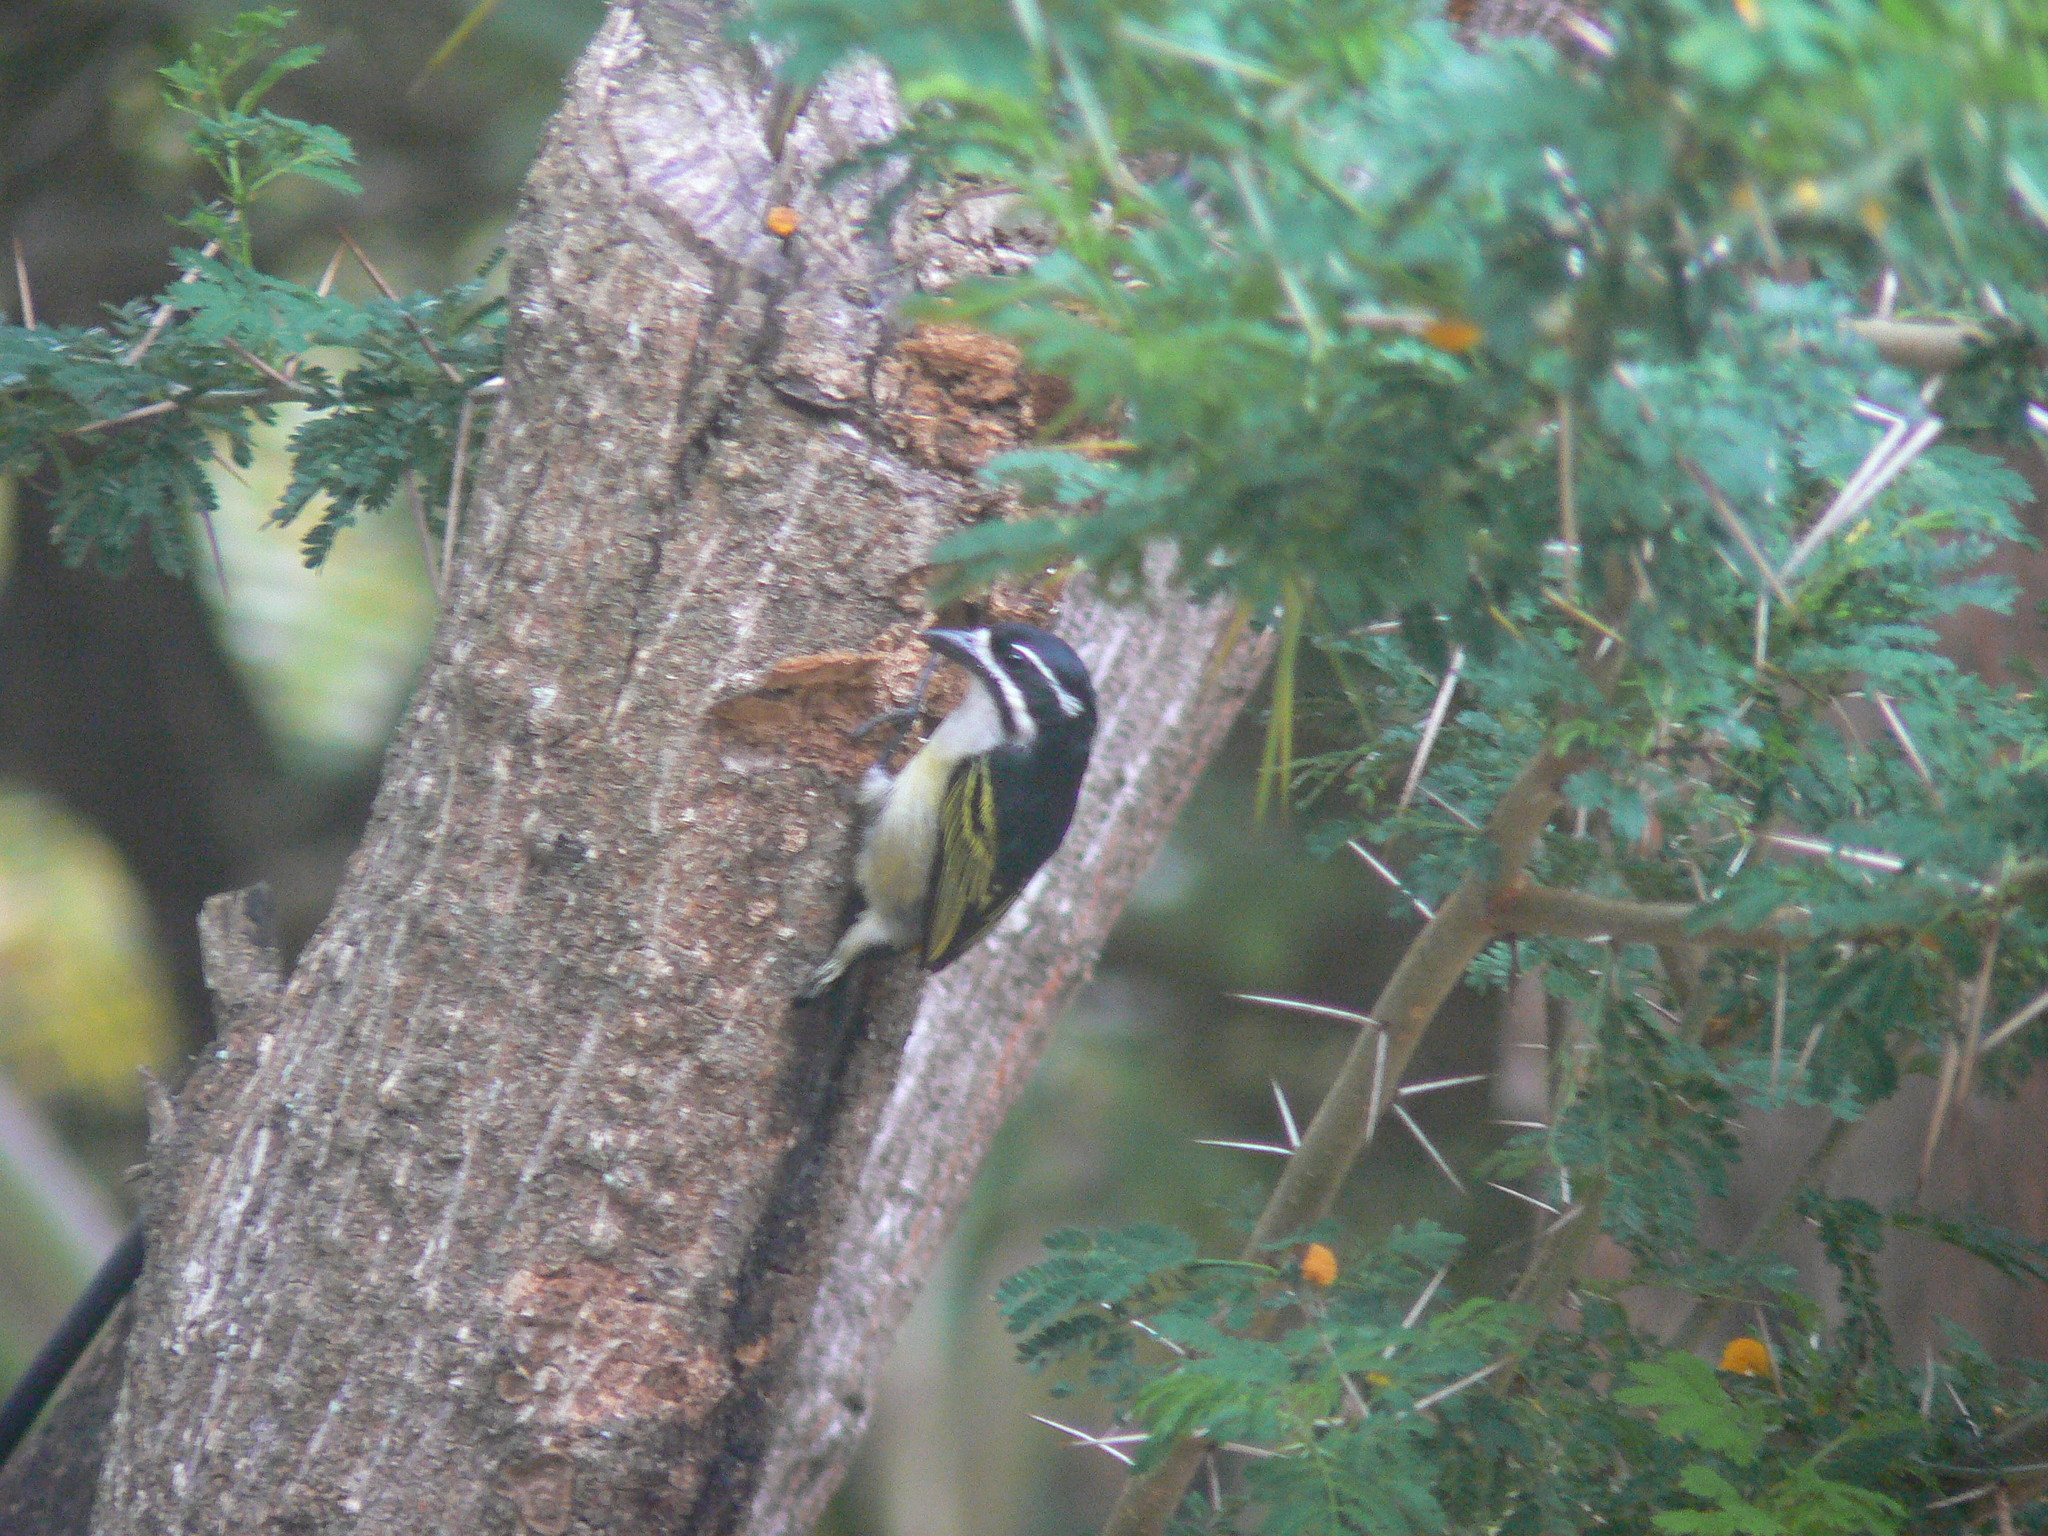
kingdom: Animalia
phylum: Chordata
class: Aves
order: Piciformes
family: Lybiidae
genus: Pogoniulus
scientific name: Pogoniulus bilineatus
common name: Yellow-rumped tinkerbird
